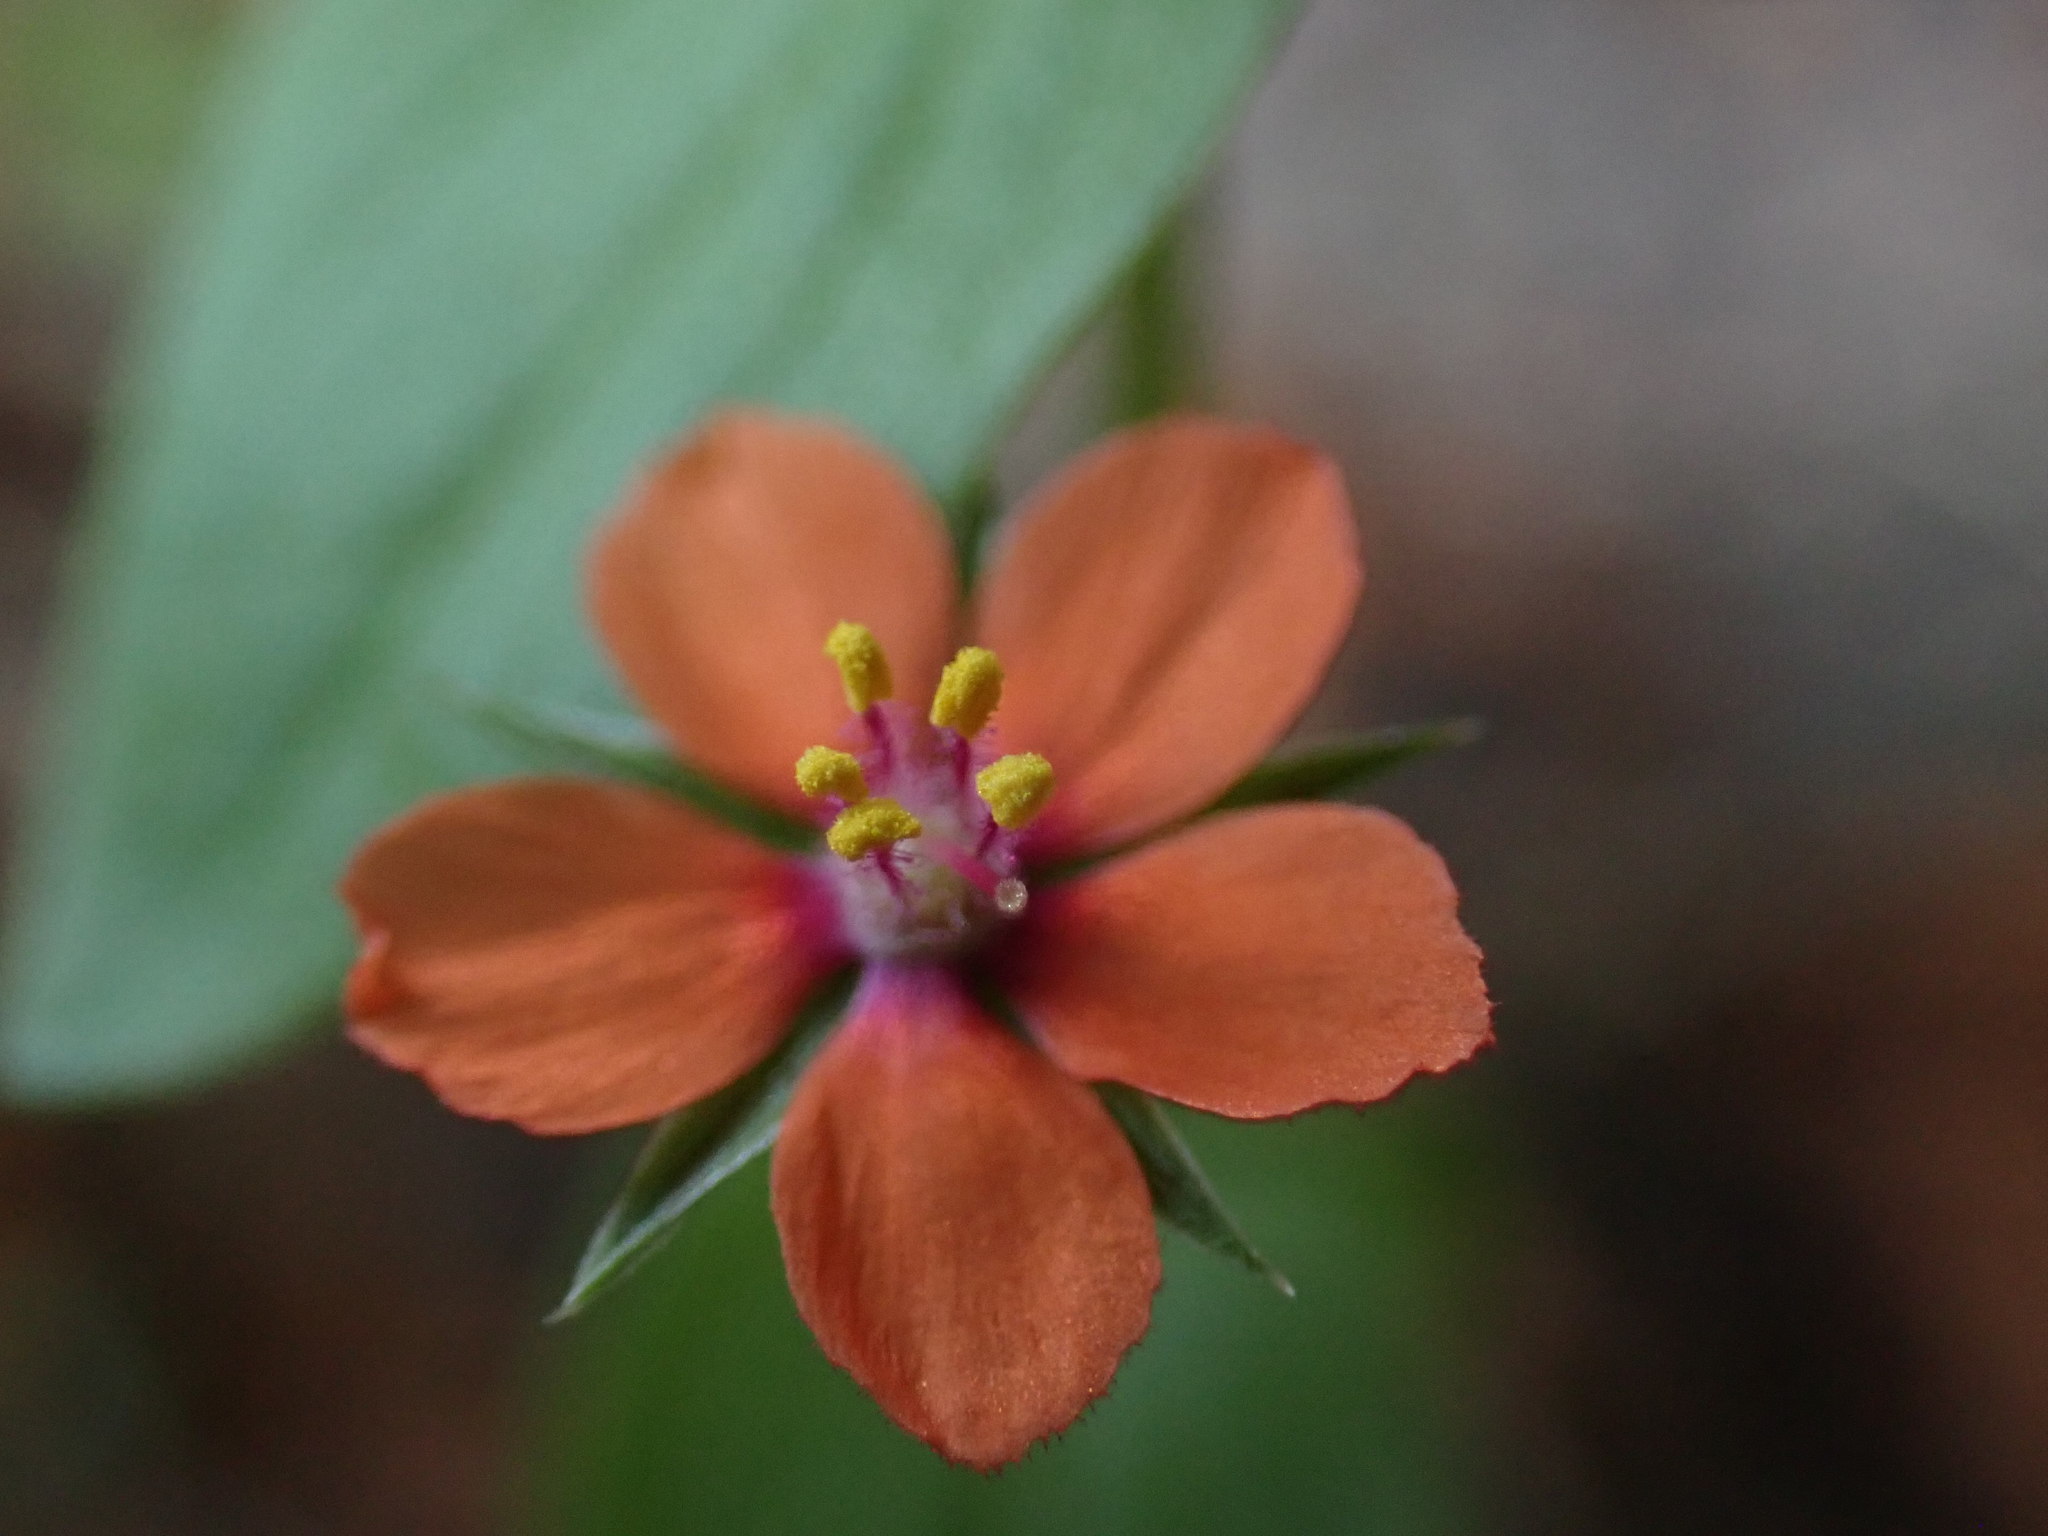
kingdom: Plantae
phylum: Tracheophyta
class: Magnoliopsida
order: Ericales
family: Primulaceae
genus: Lysimachia
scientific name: Lysimachia arvensis
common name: Scarlet pimpernel
